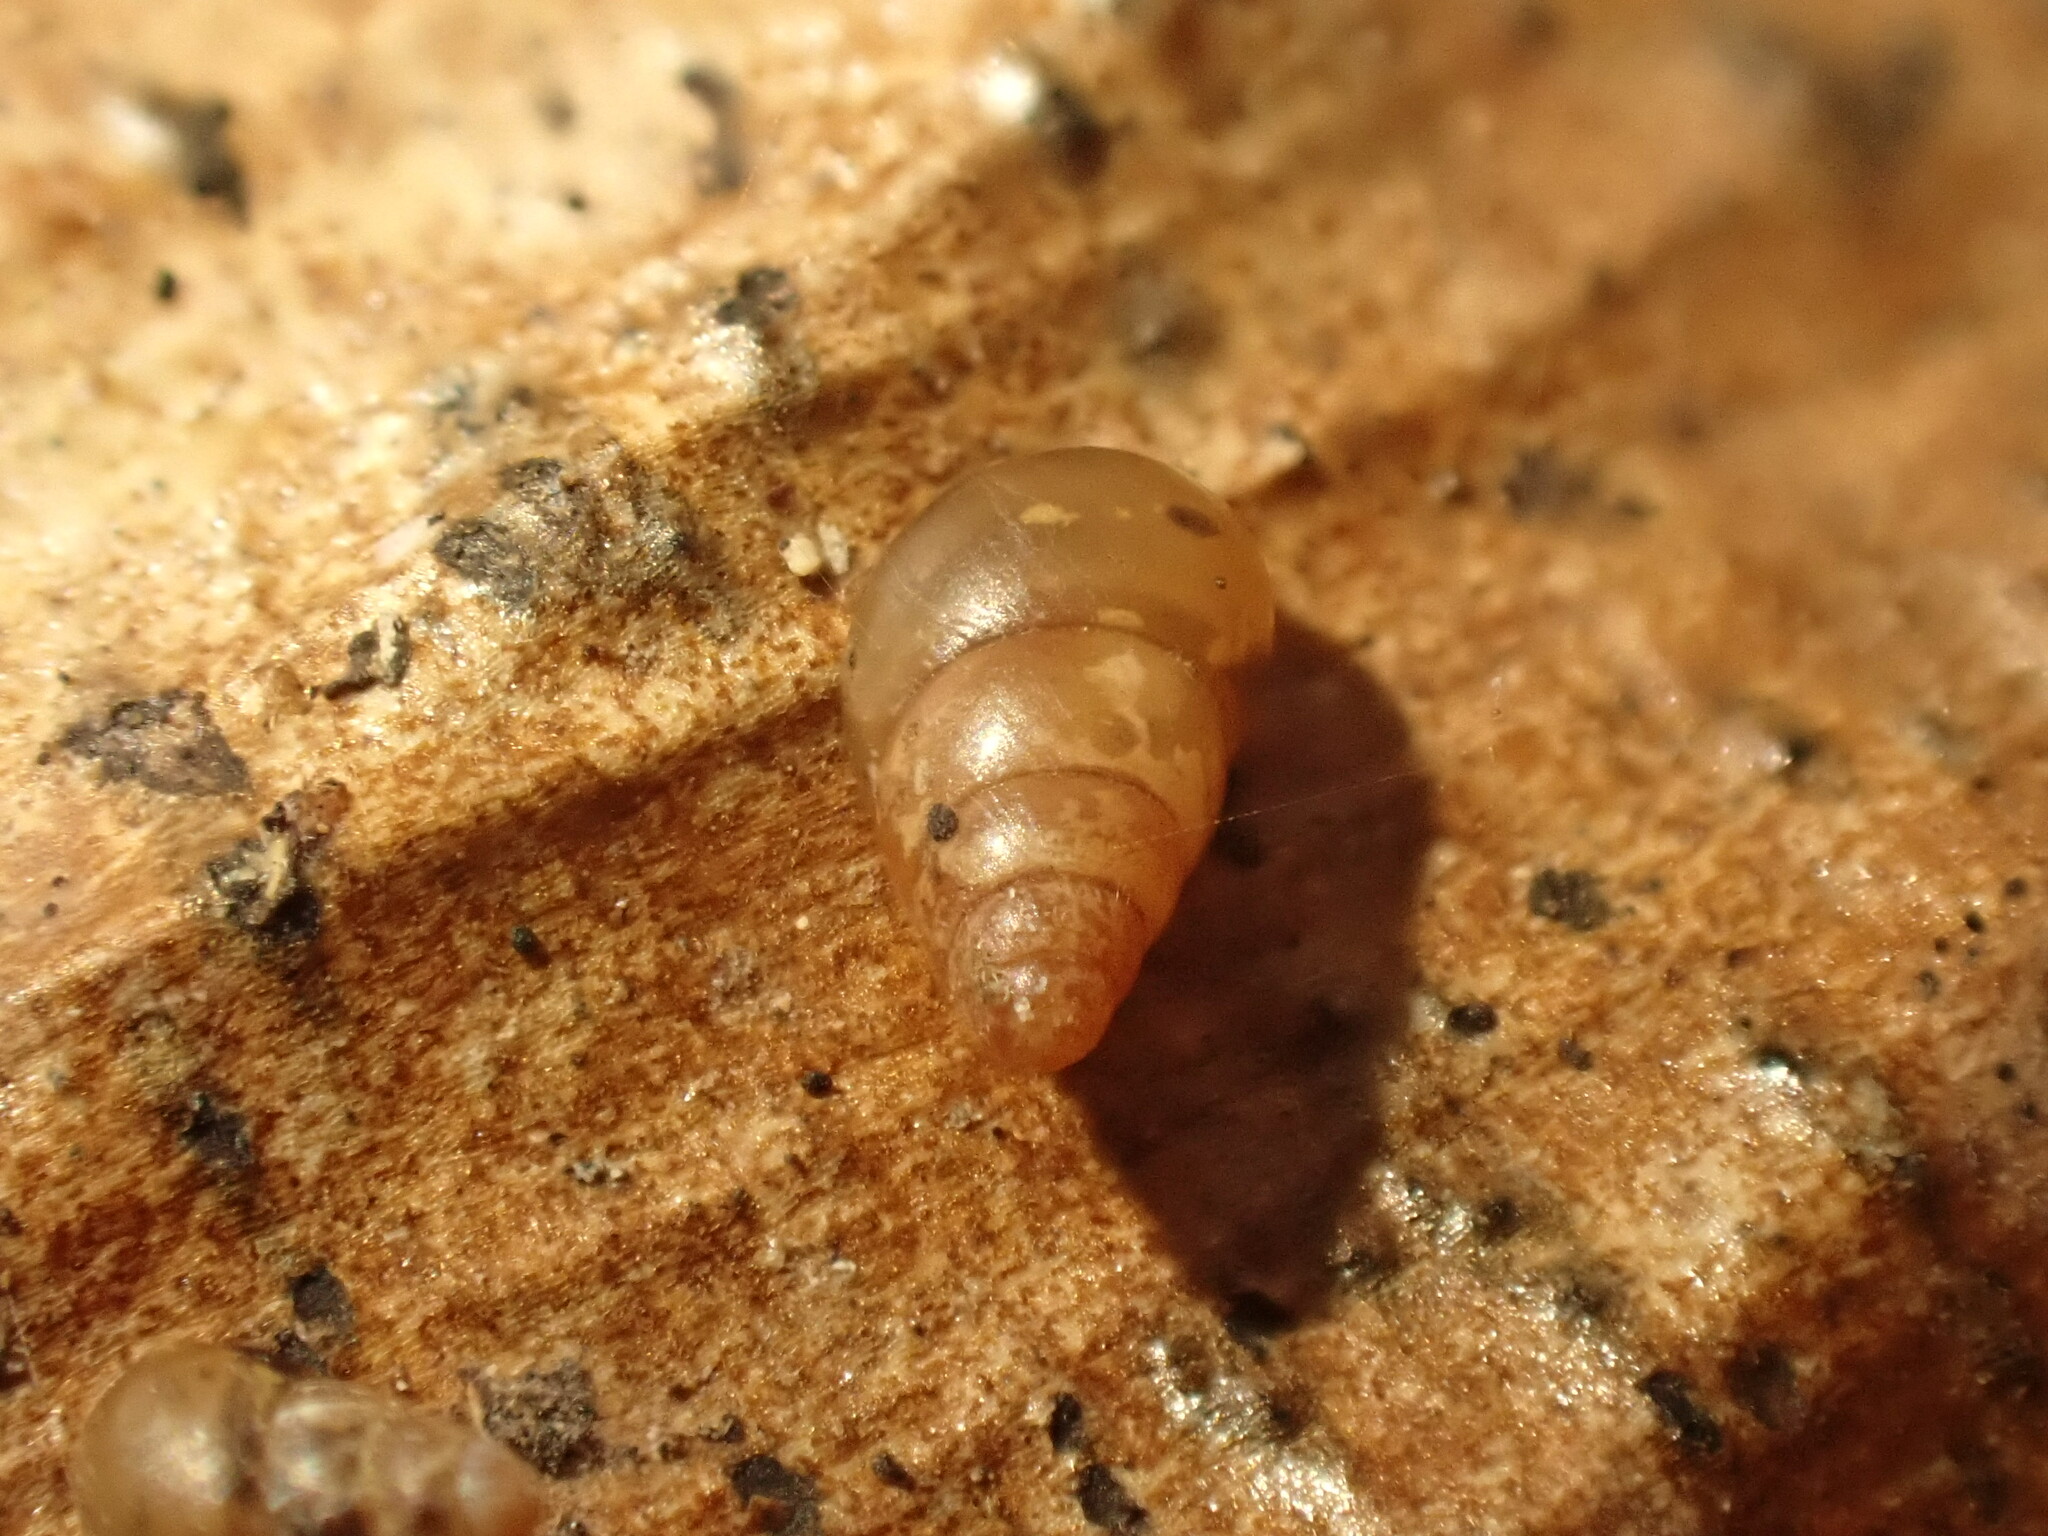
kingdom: Animalia
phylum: Mollusca
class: Gastropoda
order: Stylommatophora
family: Achatinellidae
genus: Tornatellides
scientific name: Tornatellides subperforatus
